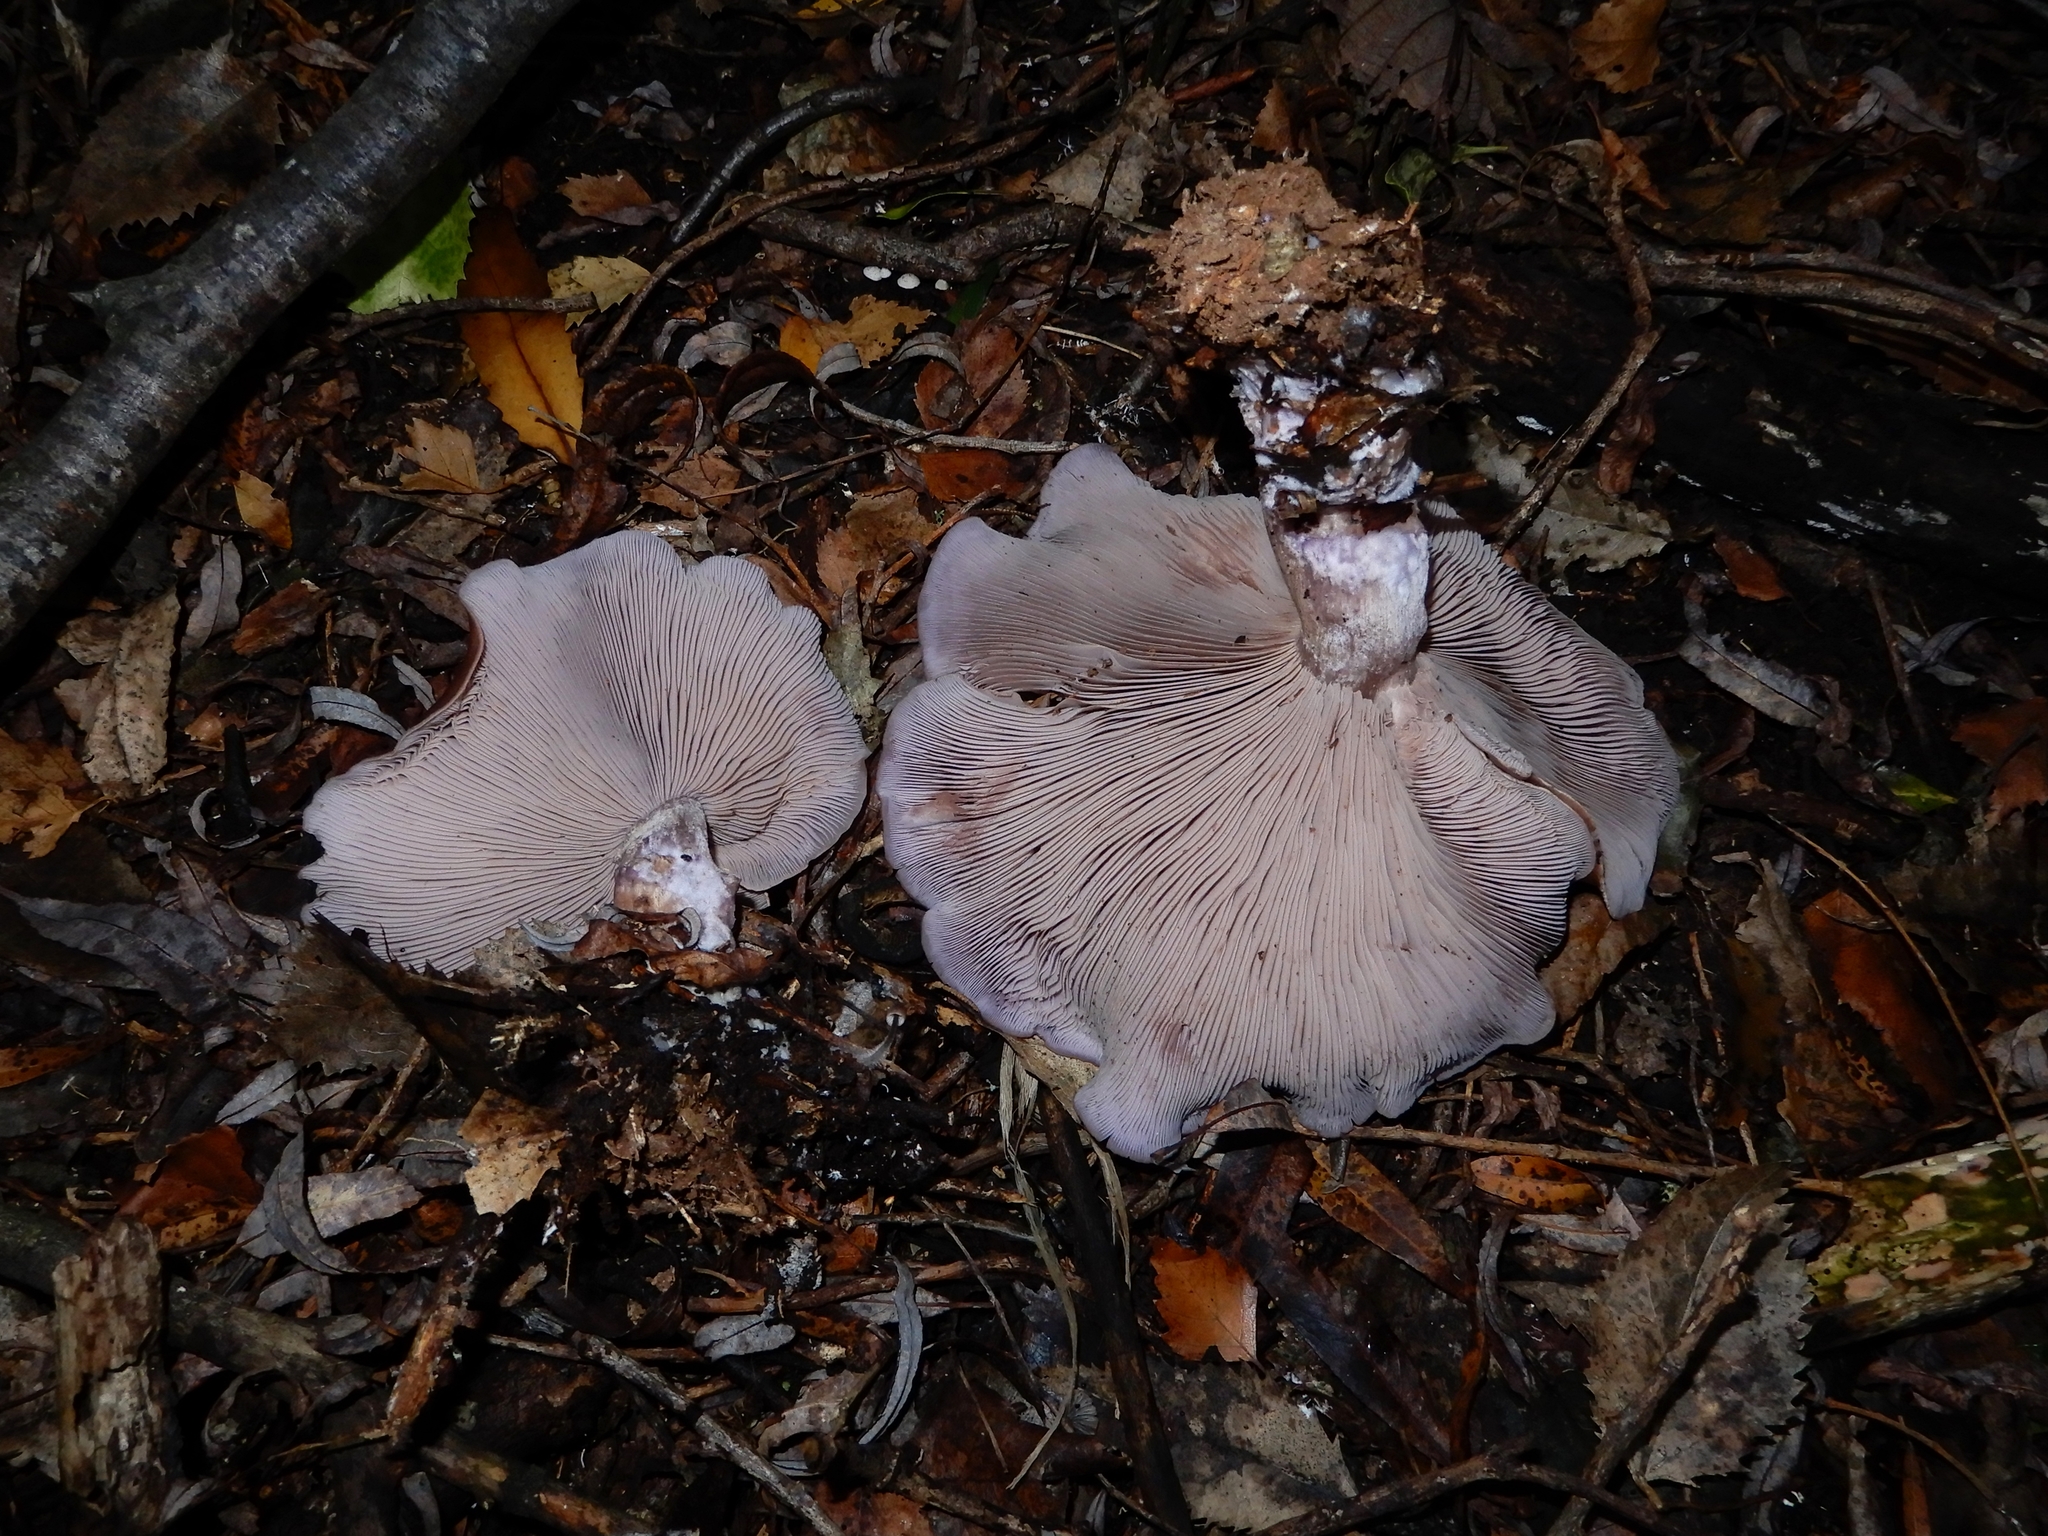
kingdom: Fungi
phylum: Basidiomycota
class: Agaricomycetes
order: Agaricales
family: Tricholomataceae
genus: Collybia
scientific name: Collybia
